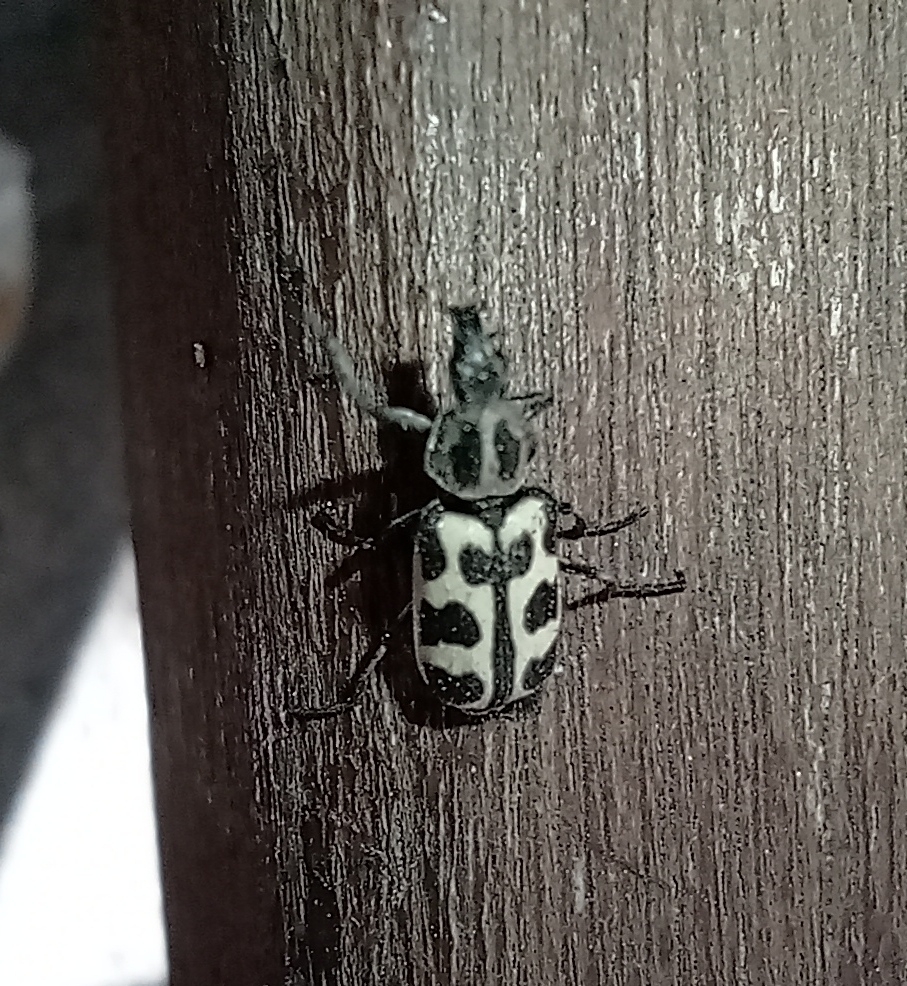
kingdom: Animalia
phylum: Arthropoda
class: Insecta
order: Coleoptera
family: Melyridae
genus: Astylus
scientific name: Astylus atromaculatus
